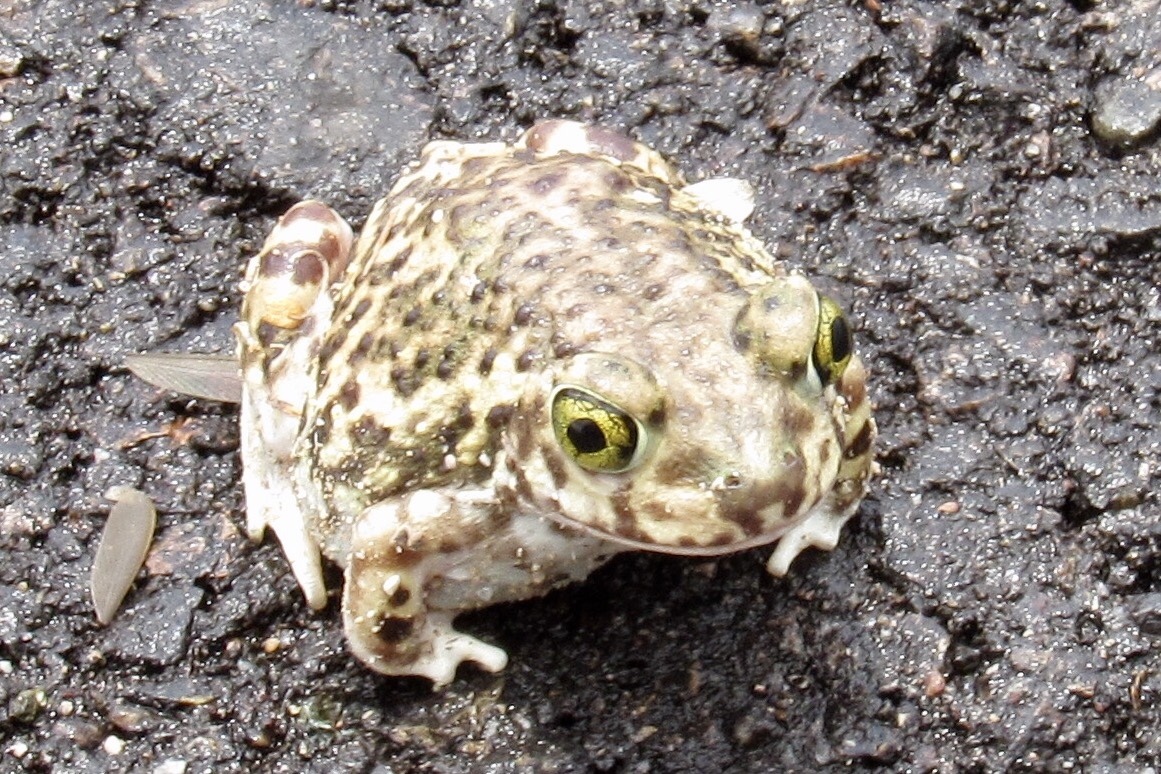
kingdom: Animalia
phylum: Chordata
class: Amphibia
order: Anura
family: Scaphiopodidae
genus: Scaphiopus
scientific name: Scaphiopus couchii
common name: Couch's spadefoot toad
